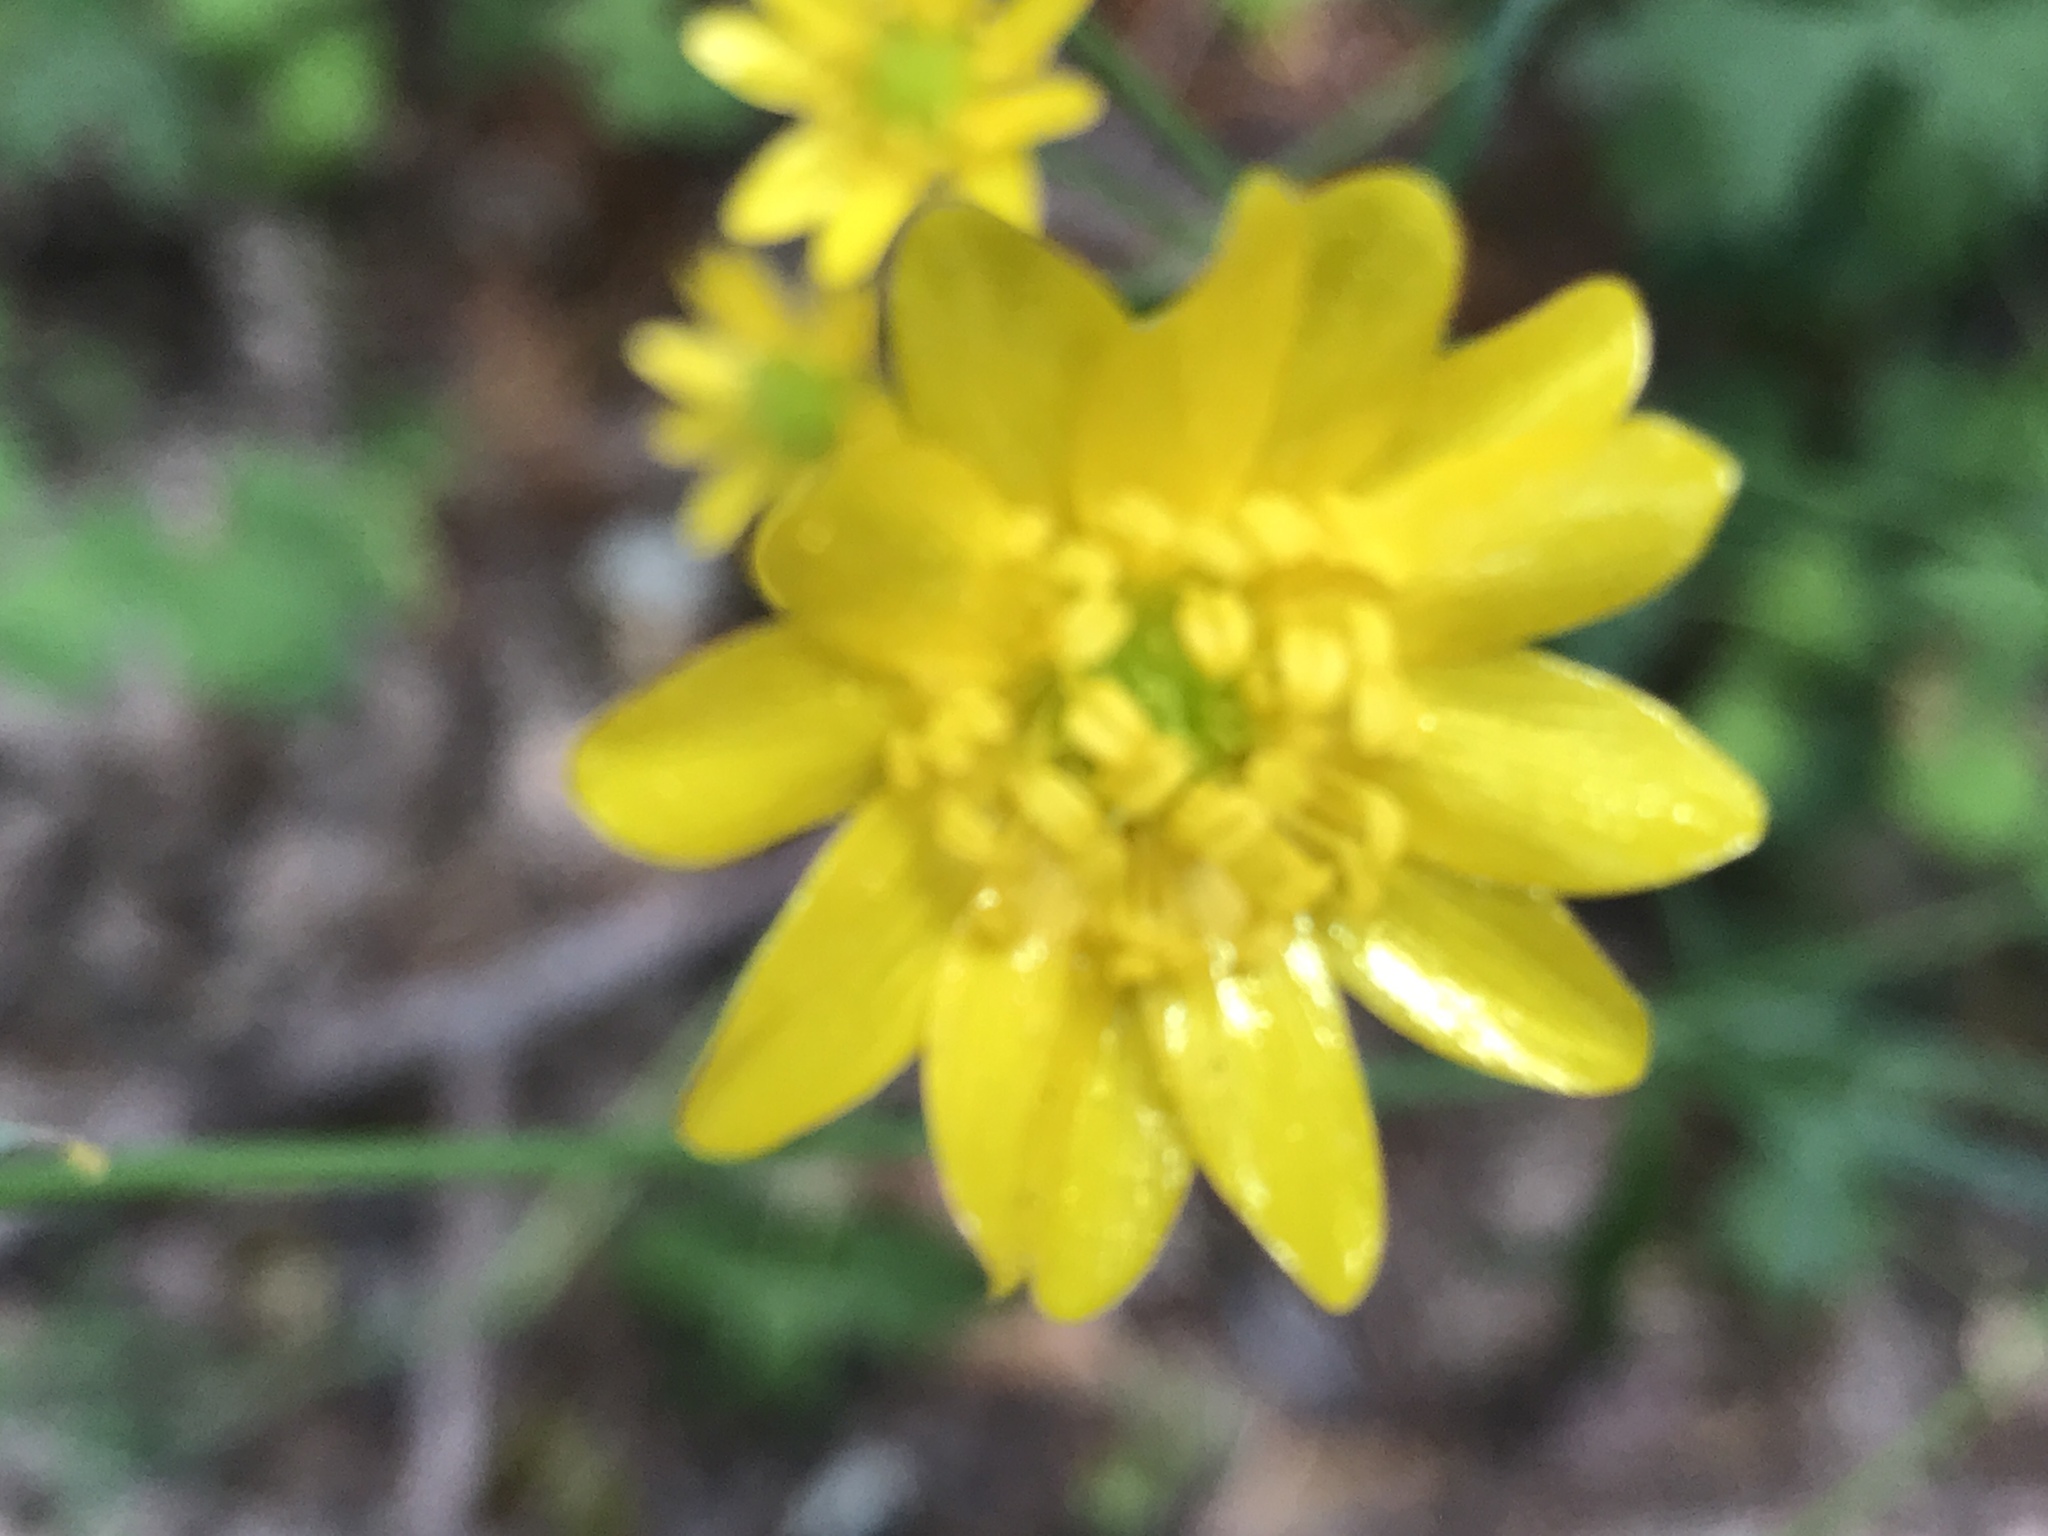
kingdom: Plantae
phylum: Tracheophyta
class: Magnoliopsida
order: Ranunculales
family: Ranunculaceae
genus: Ranunculus
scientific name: Ranunculus californicus
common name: California buttercup
